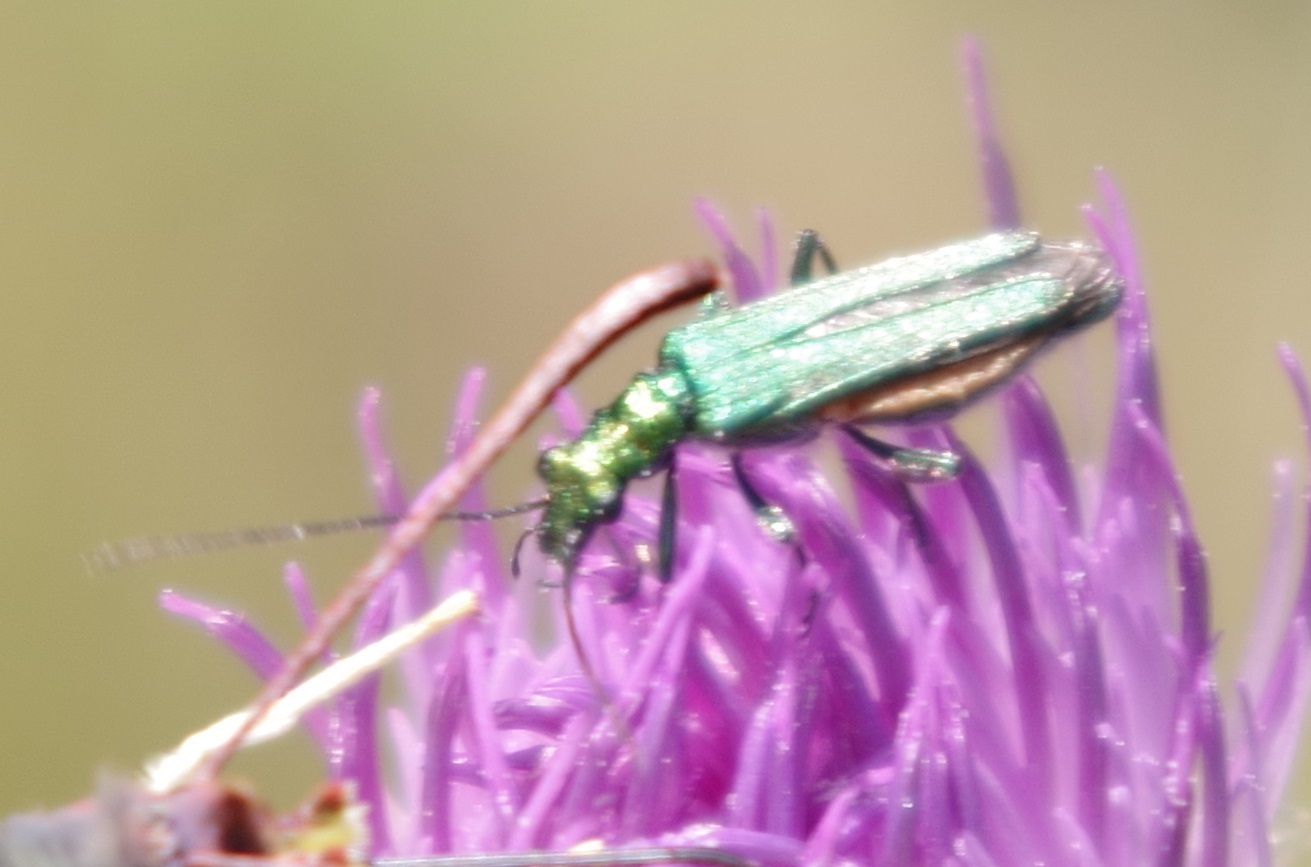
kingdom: Animalia
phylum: Arthropoda
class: Insecta
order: Coleoptera
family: Oedemeridae
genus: Oedemera
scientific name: Oedemera nobilis
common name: Swollen-thighed beetle
